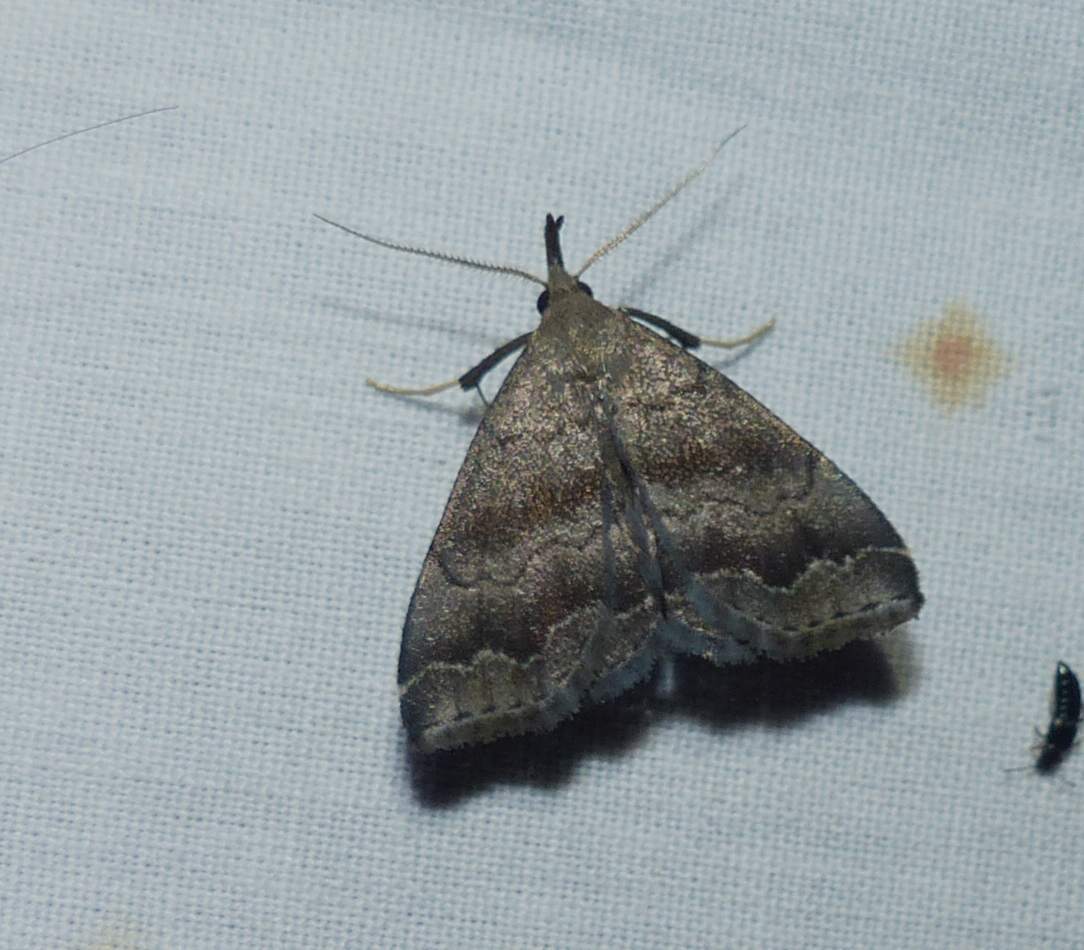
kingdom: Animalia
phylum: Arthropoda
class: Insecta
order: Lepidoptera
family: Erebidae
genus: Phalaenostola
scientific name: Phalaenostola larentioides
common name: Black-banded owlet
